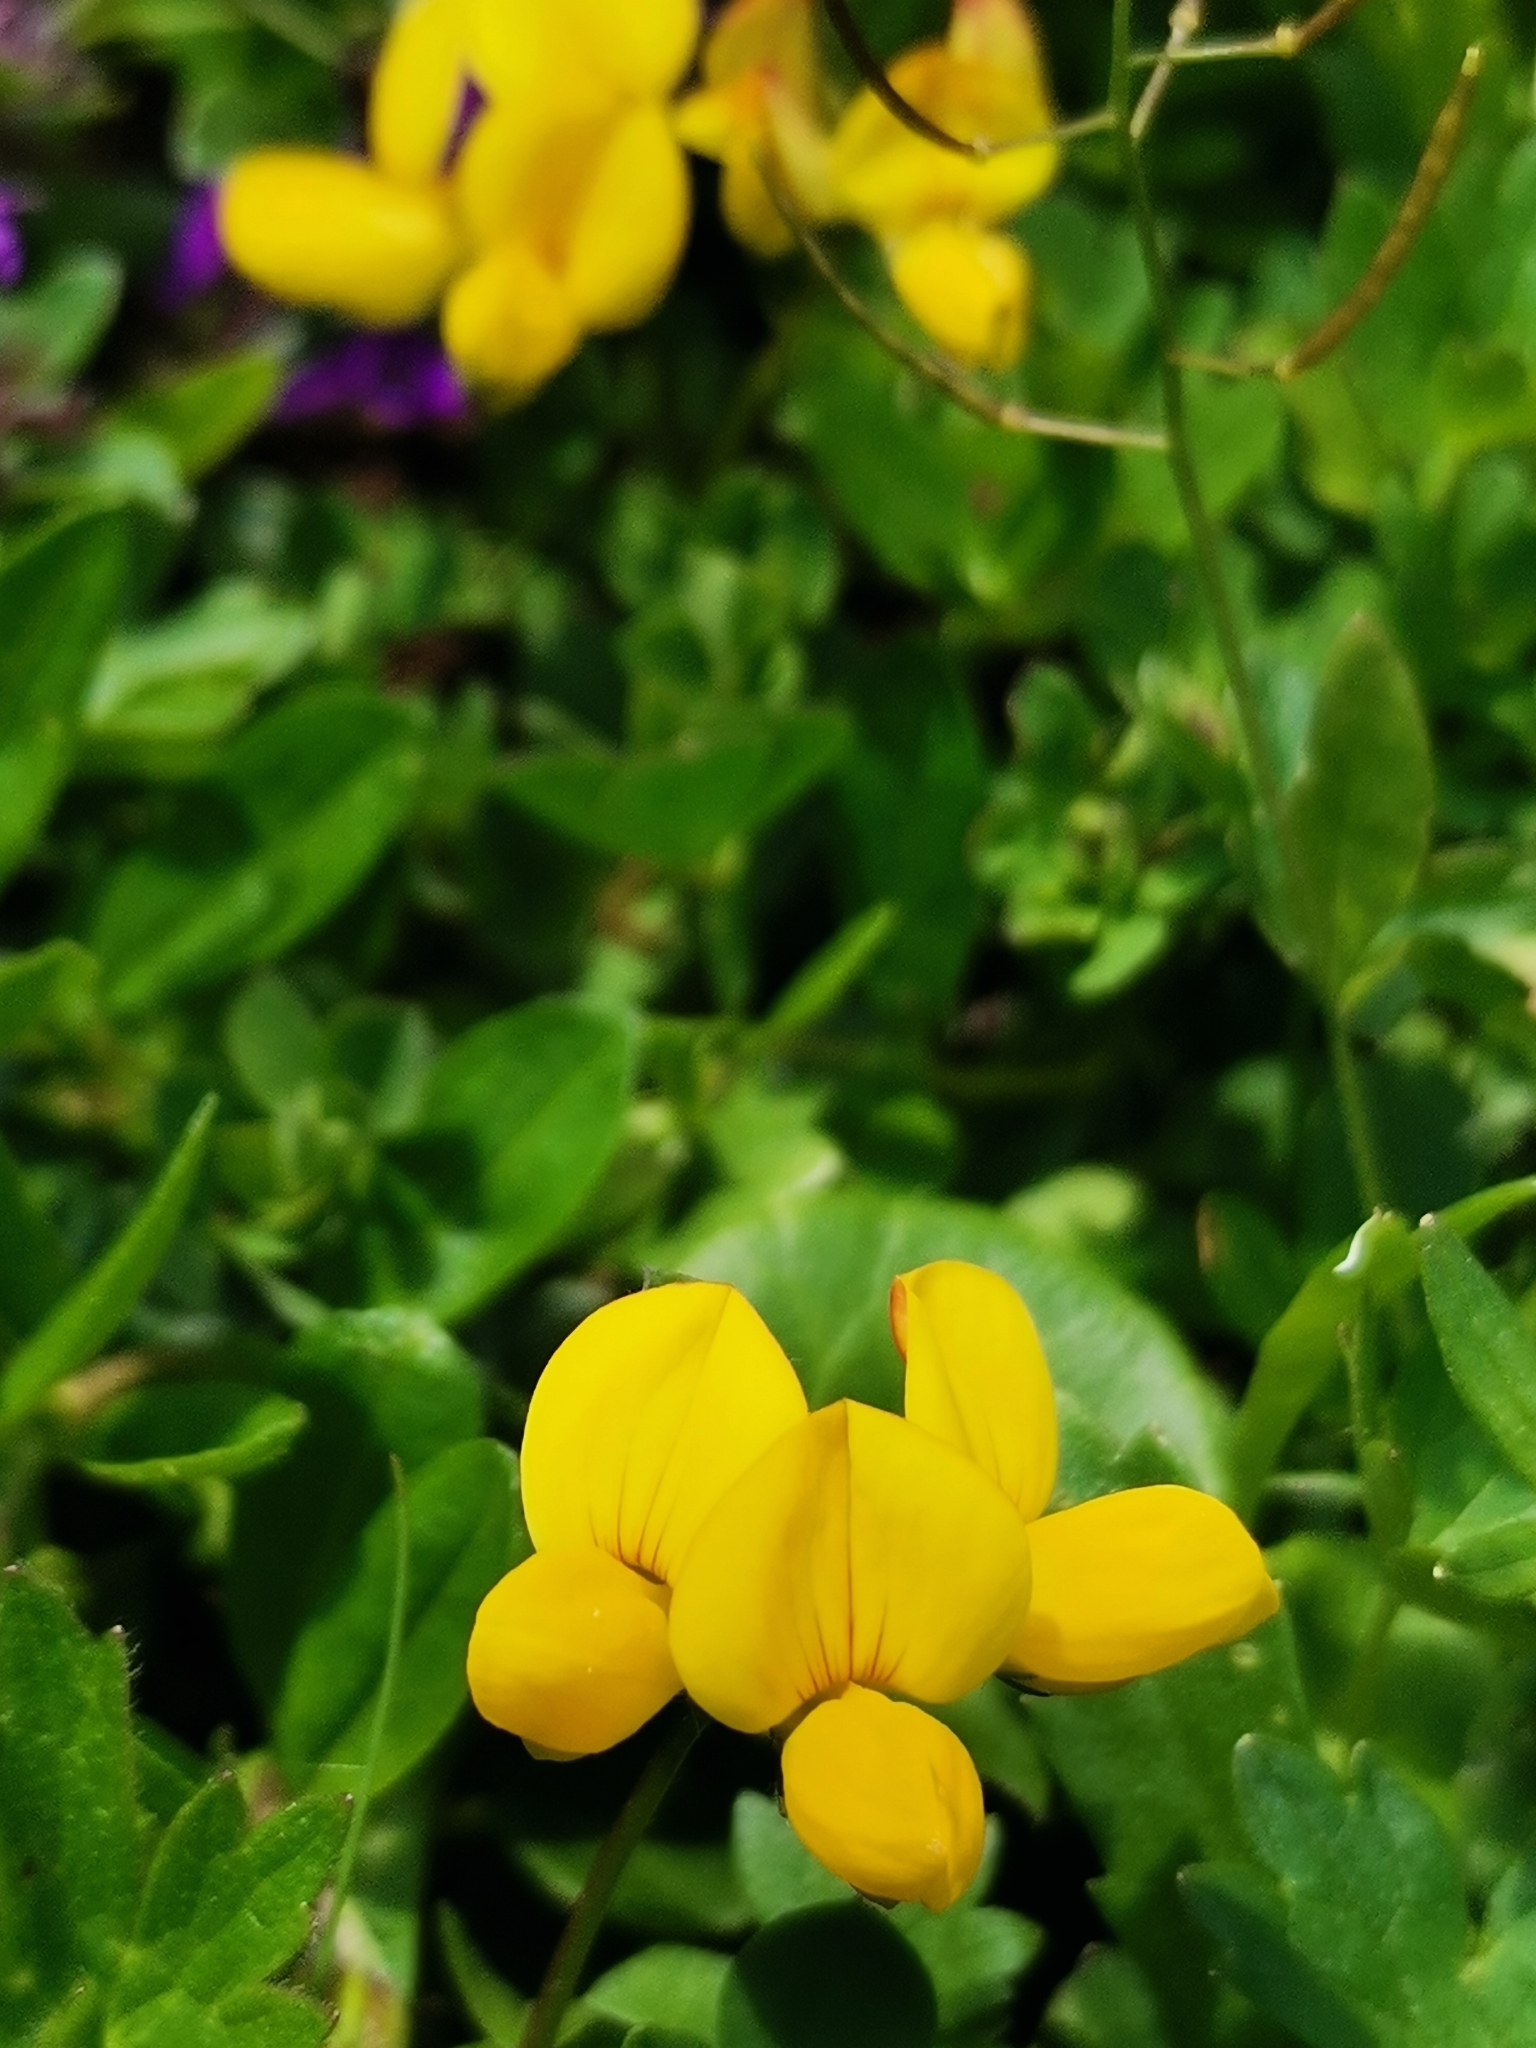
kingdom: Plantae
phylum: Tracheophyta
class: Magnoliopsida
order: Fabales
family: Fabaceae
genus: Lotus
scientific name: Lotus corniculatus
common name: Common bird's-foot-trefoil
